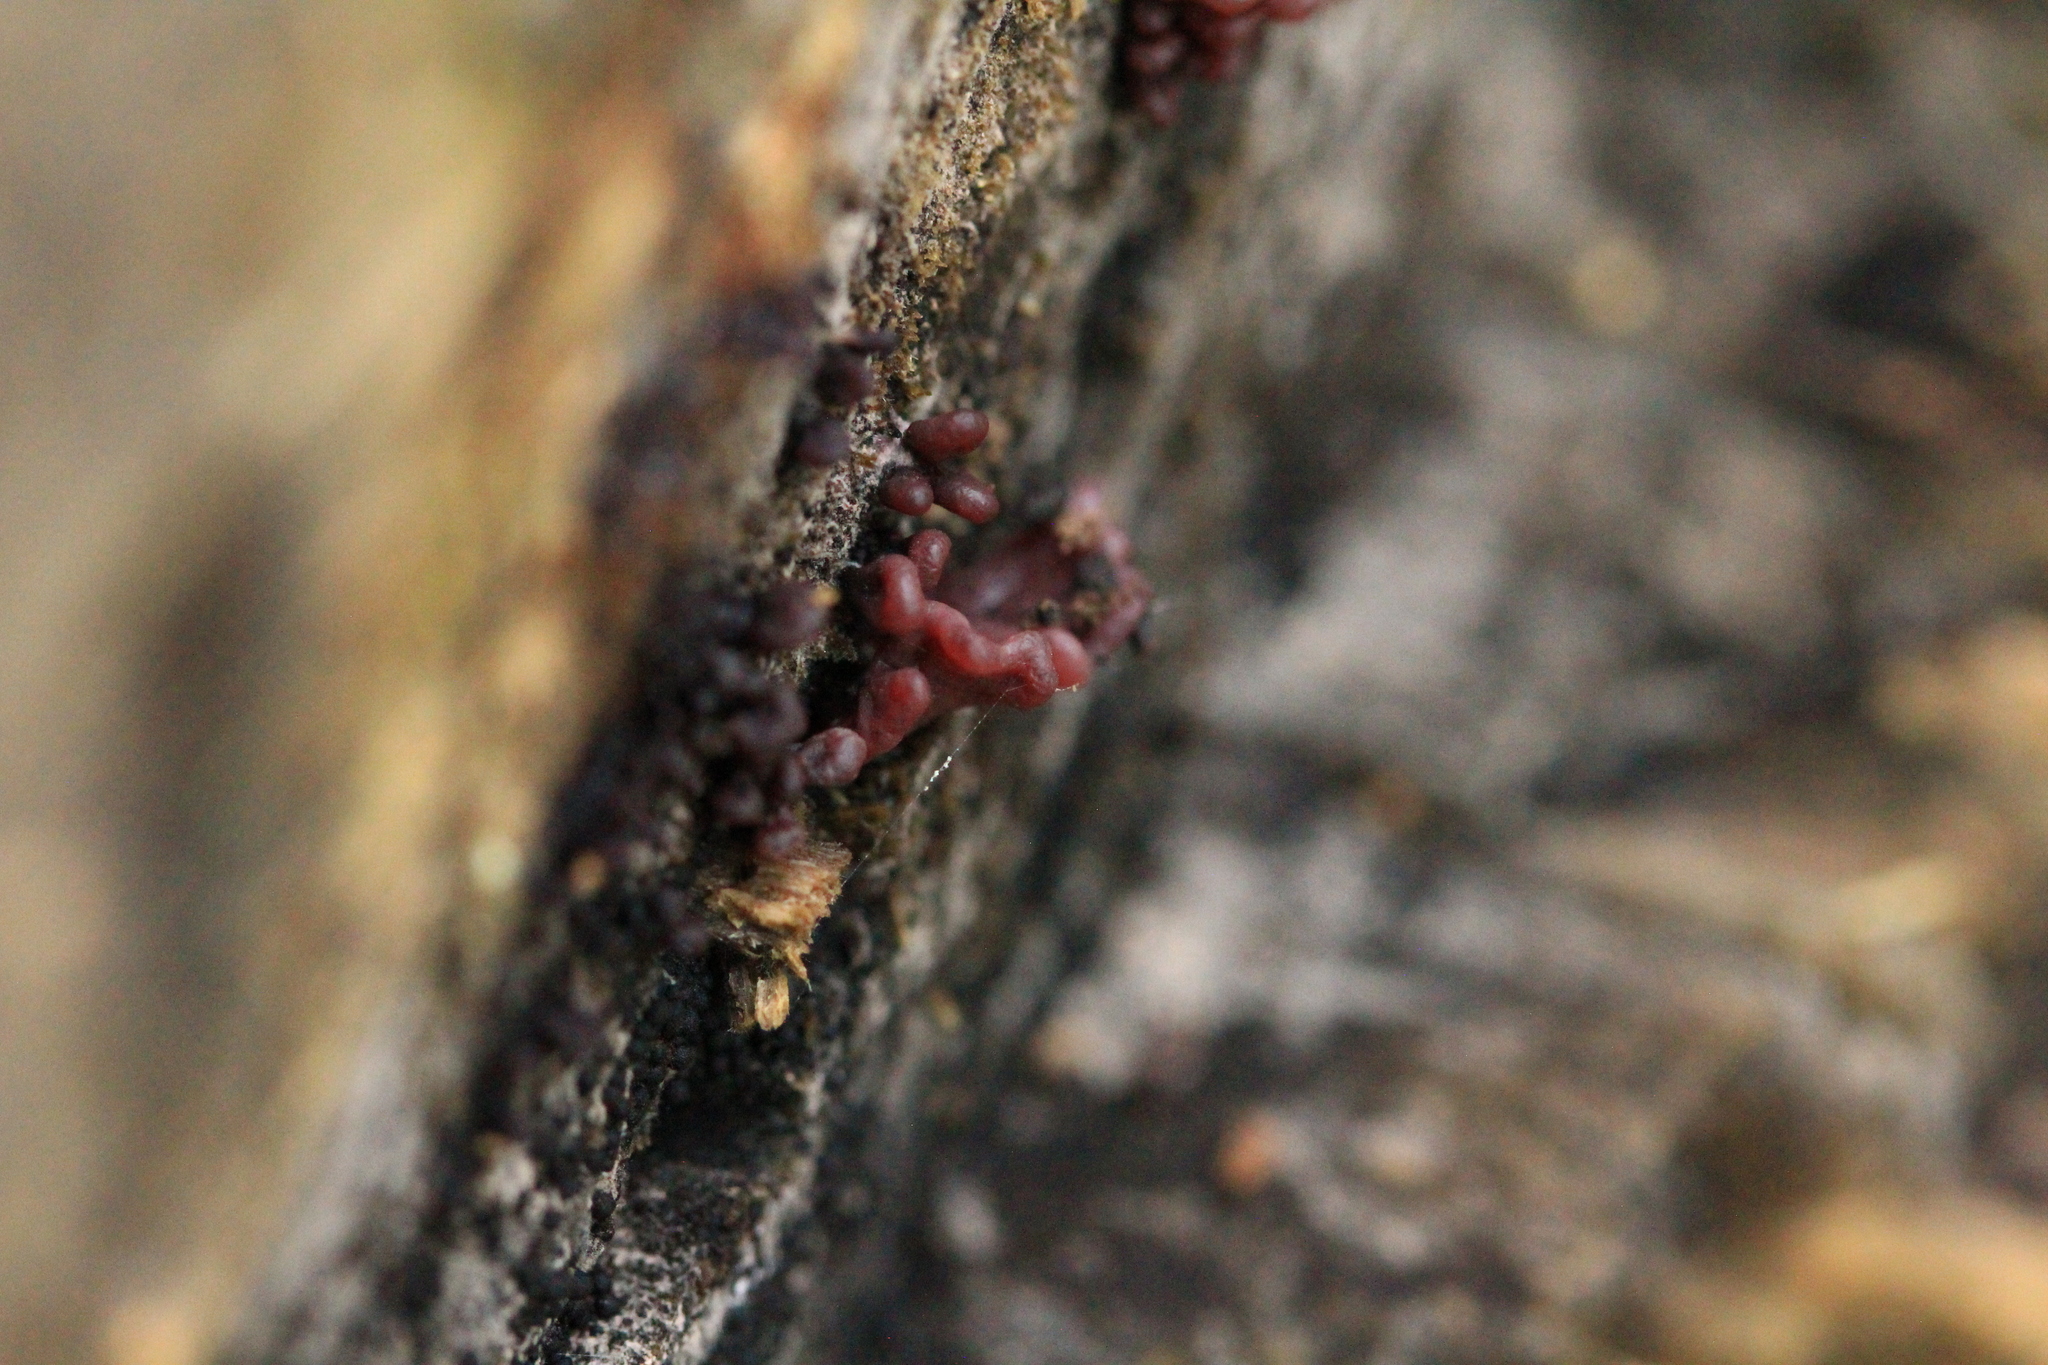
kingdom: Fungi
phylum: Ascomycota
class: Leotiomycetes
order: Helotiales
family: Gelatinodiscaceae
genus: Ascocoryne
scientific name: Ascocoryne sarcoides
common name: Purple jellydisc
